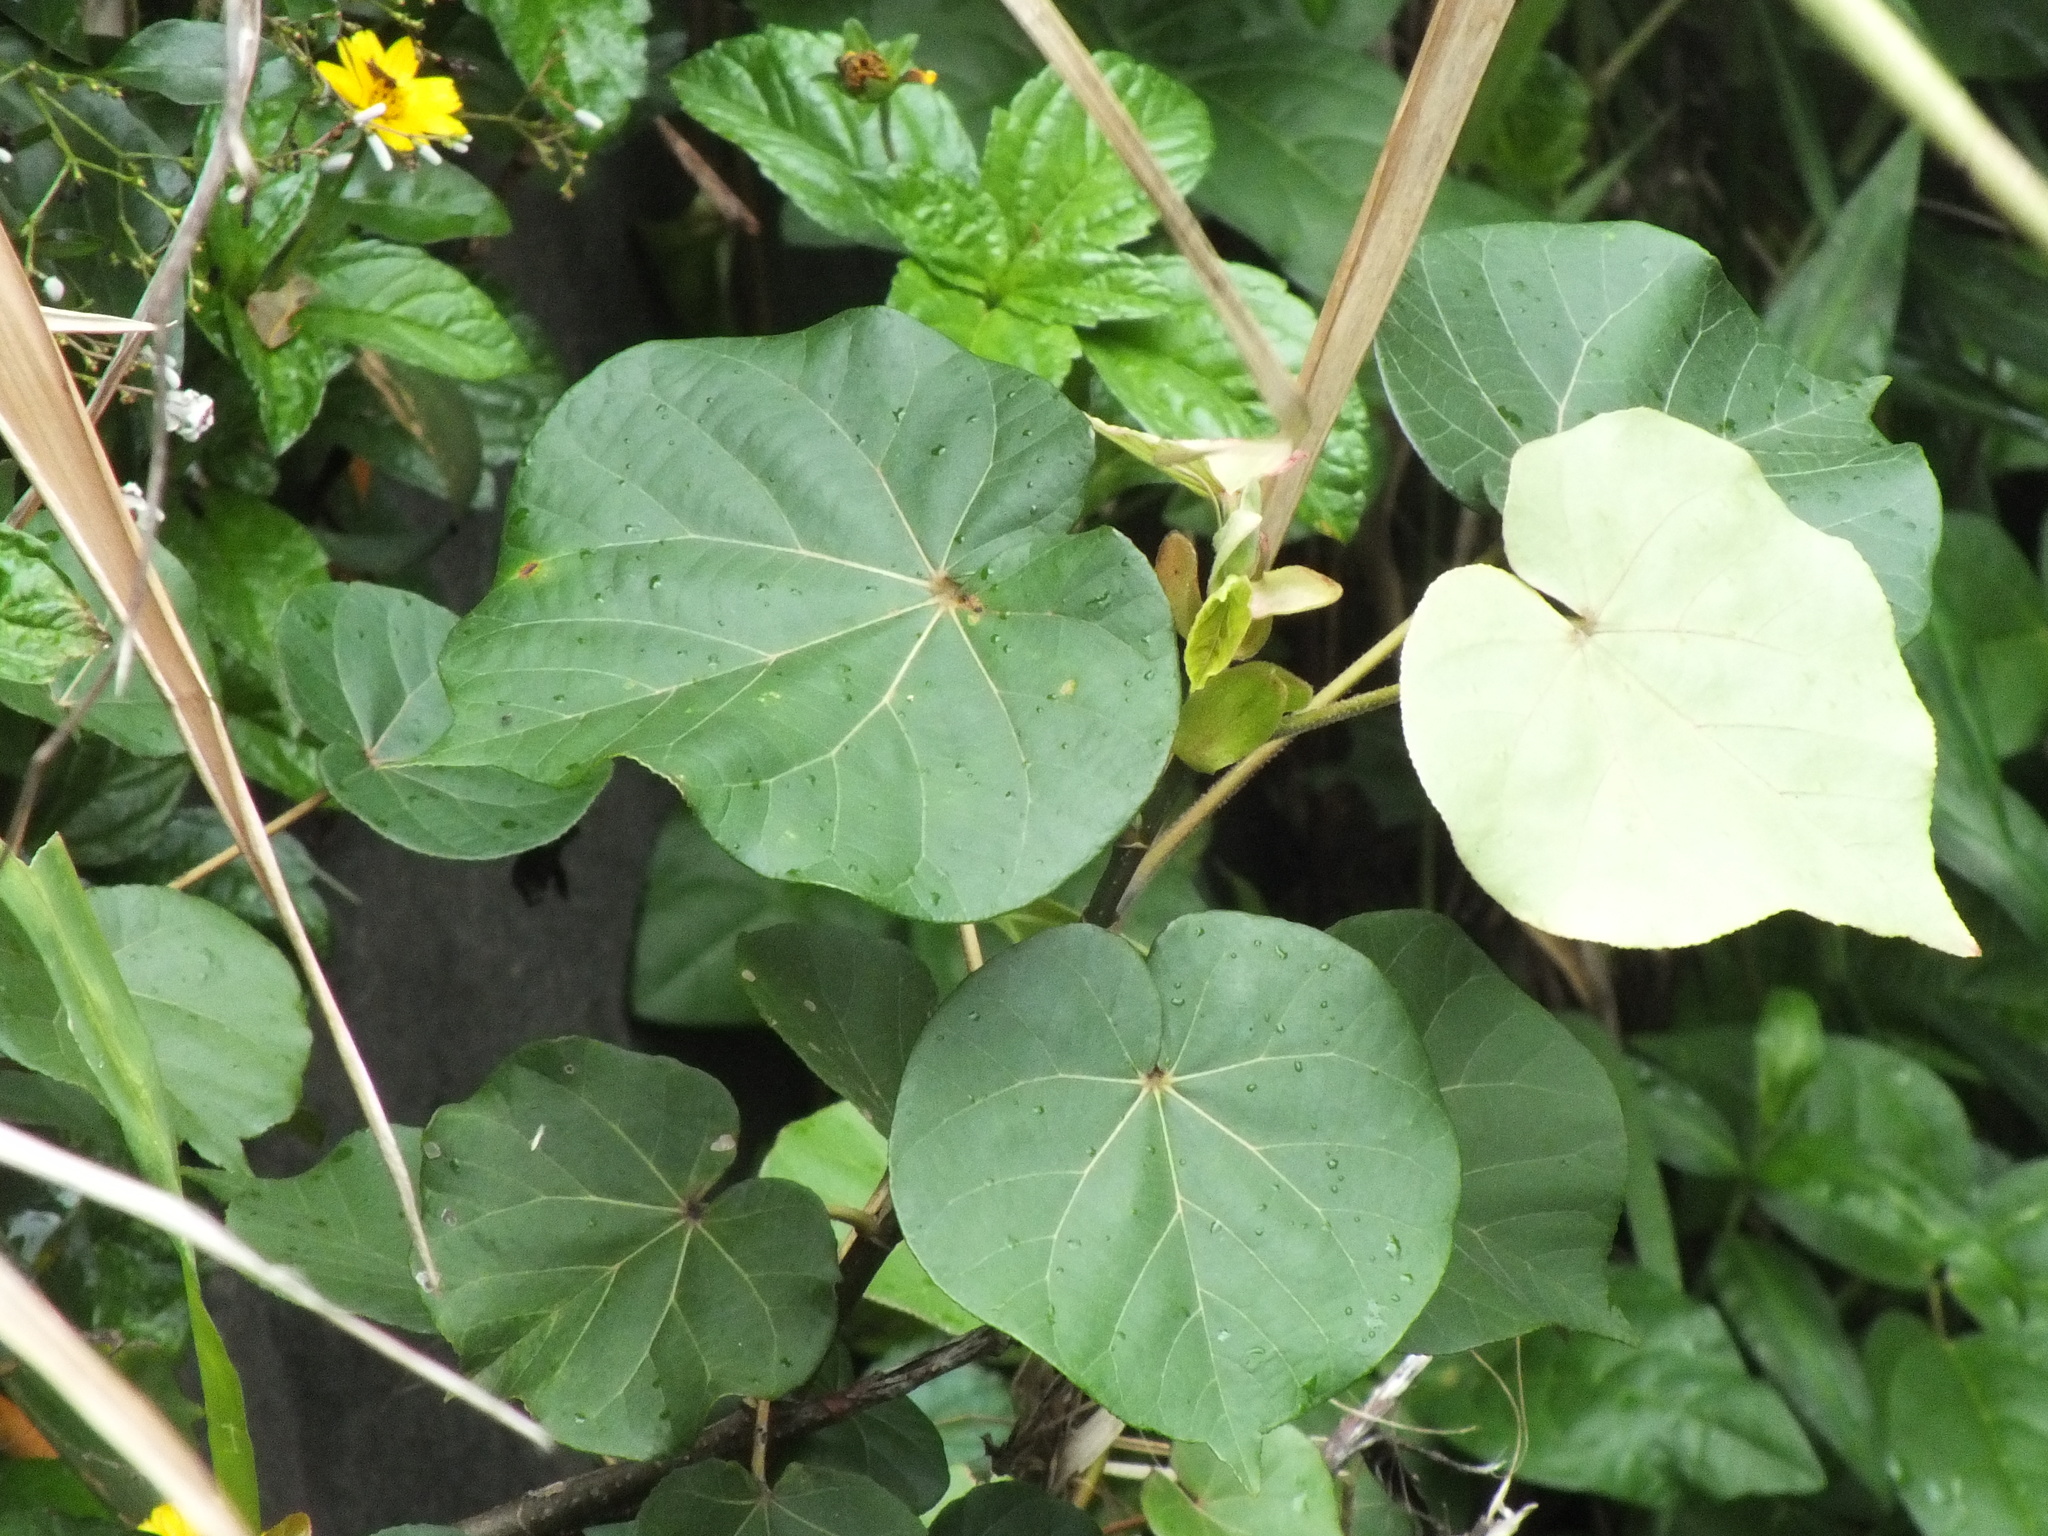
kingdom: Plantae
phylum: Tracheophyta
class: Magnoliopsida
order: Malvales
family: Malvaceae
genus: Talipariti
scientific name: Talipariti tiliaceum
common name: Sea hibiscus
